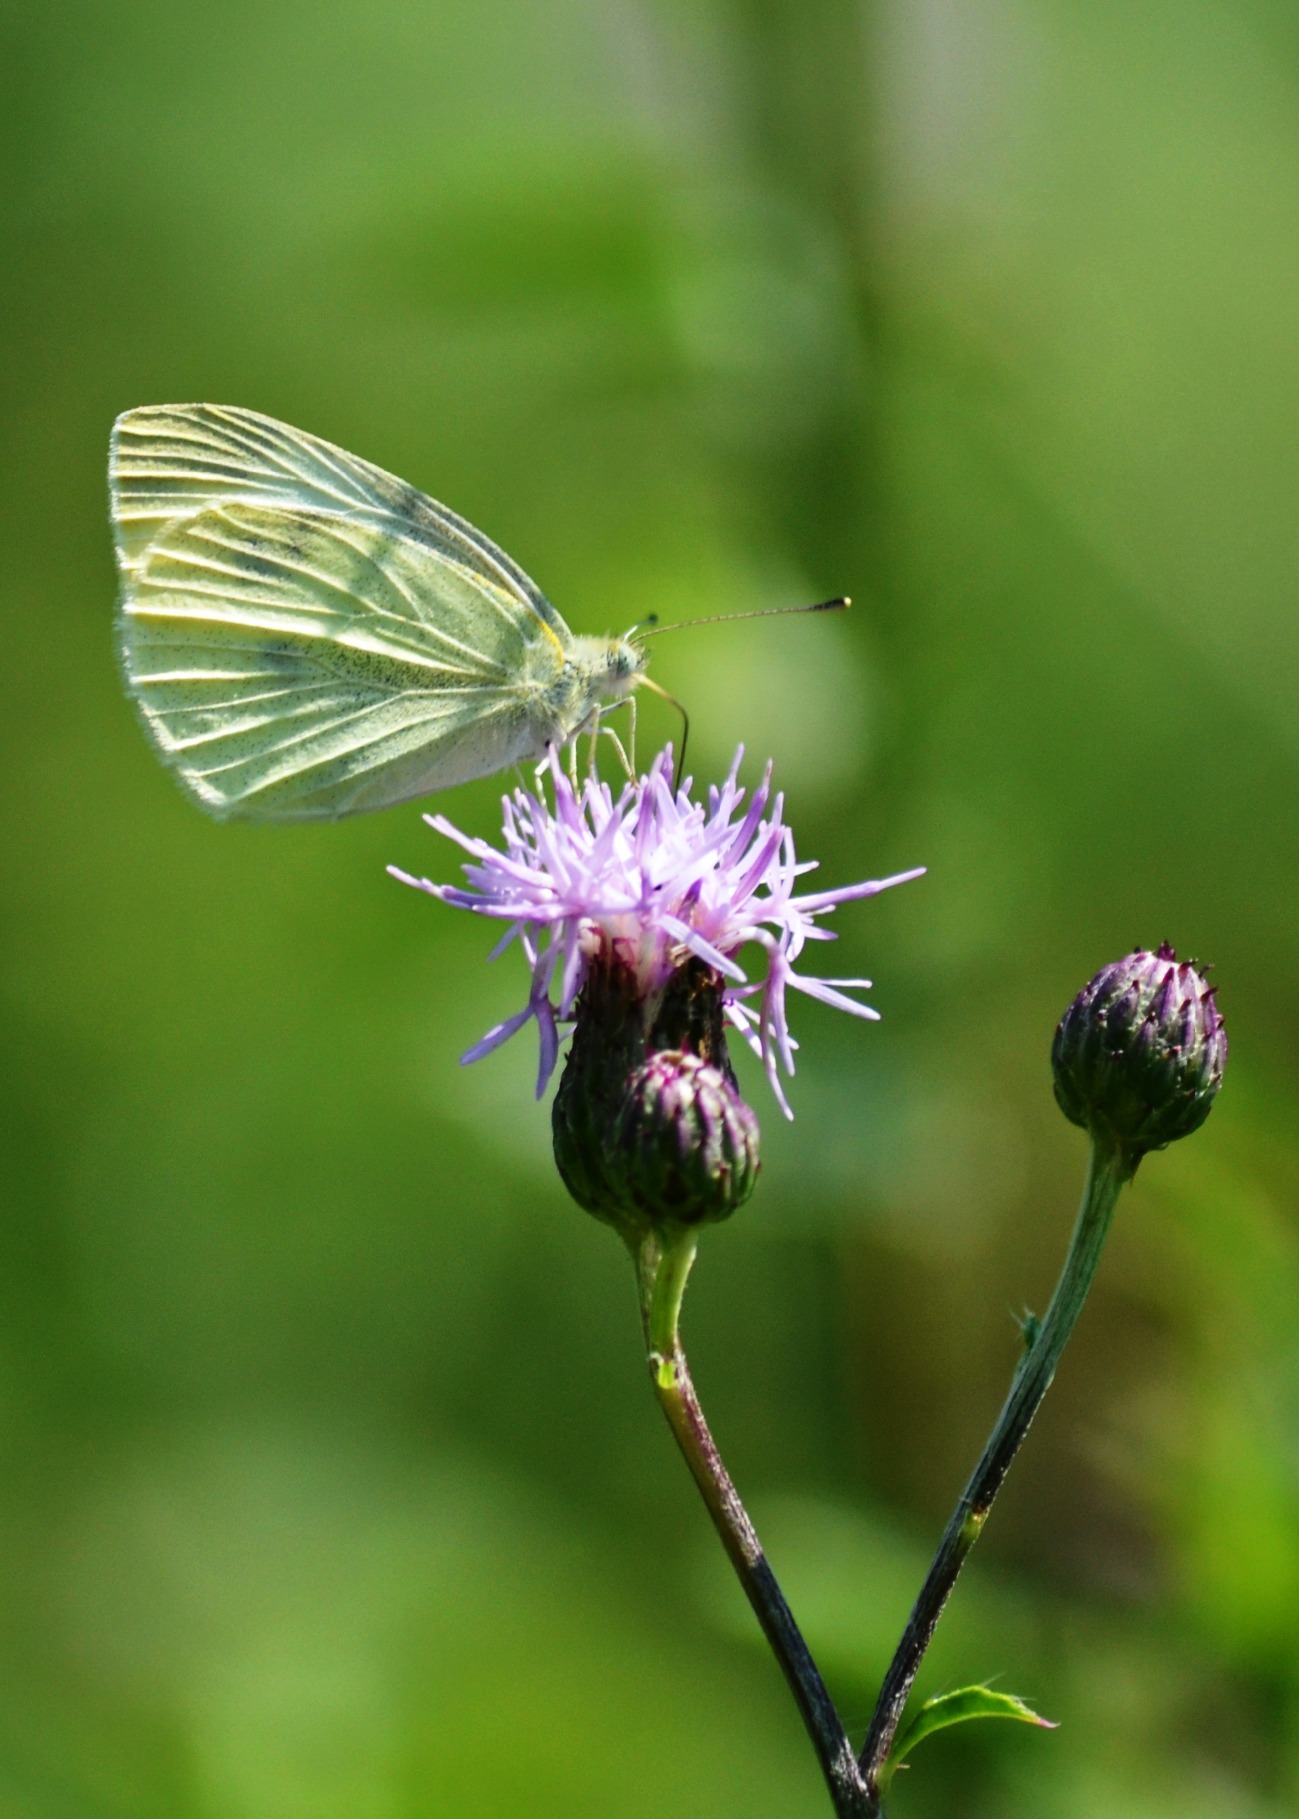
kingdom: Animalia
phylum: Arthropoda
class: Insecta
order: Lepidoptera
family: Pieridae
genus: Pieris
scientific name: Pieris rapae
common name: Small white
